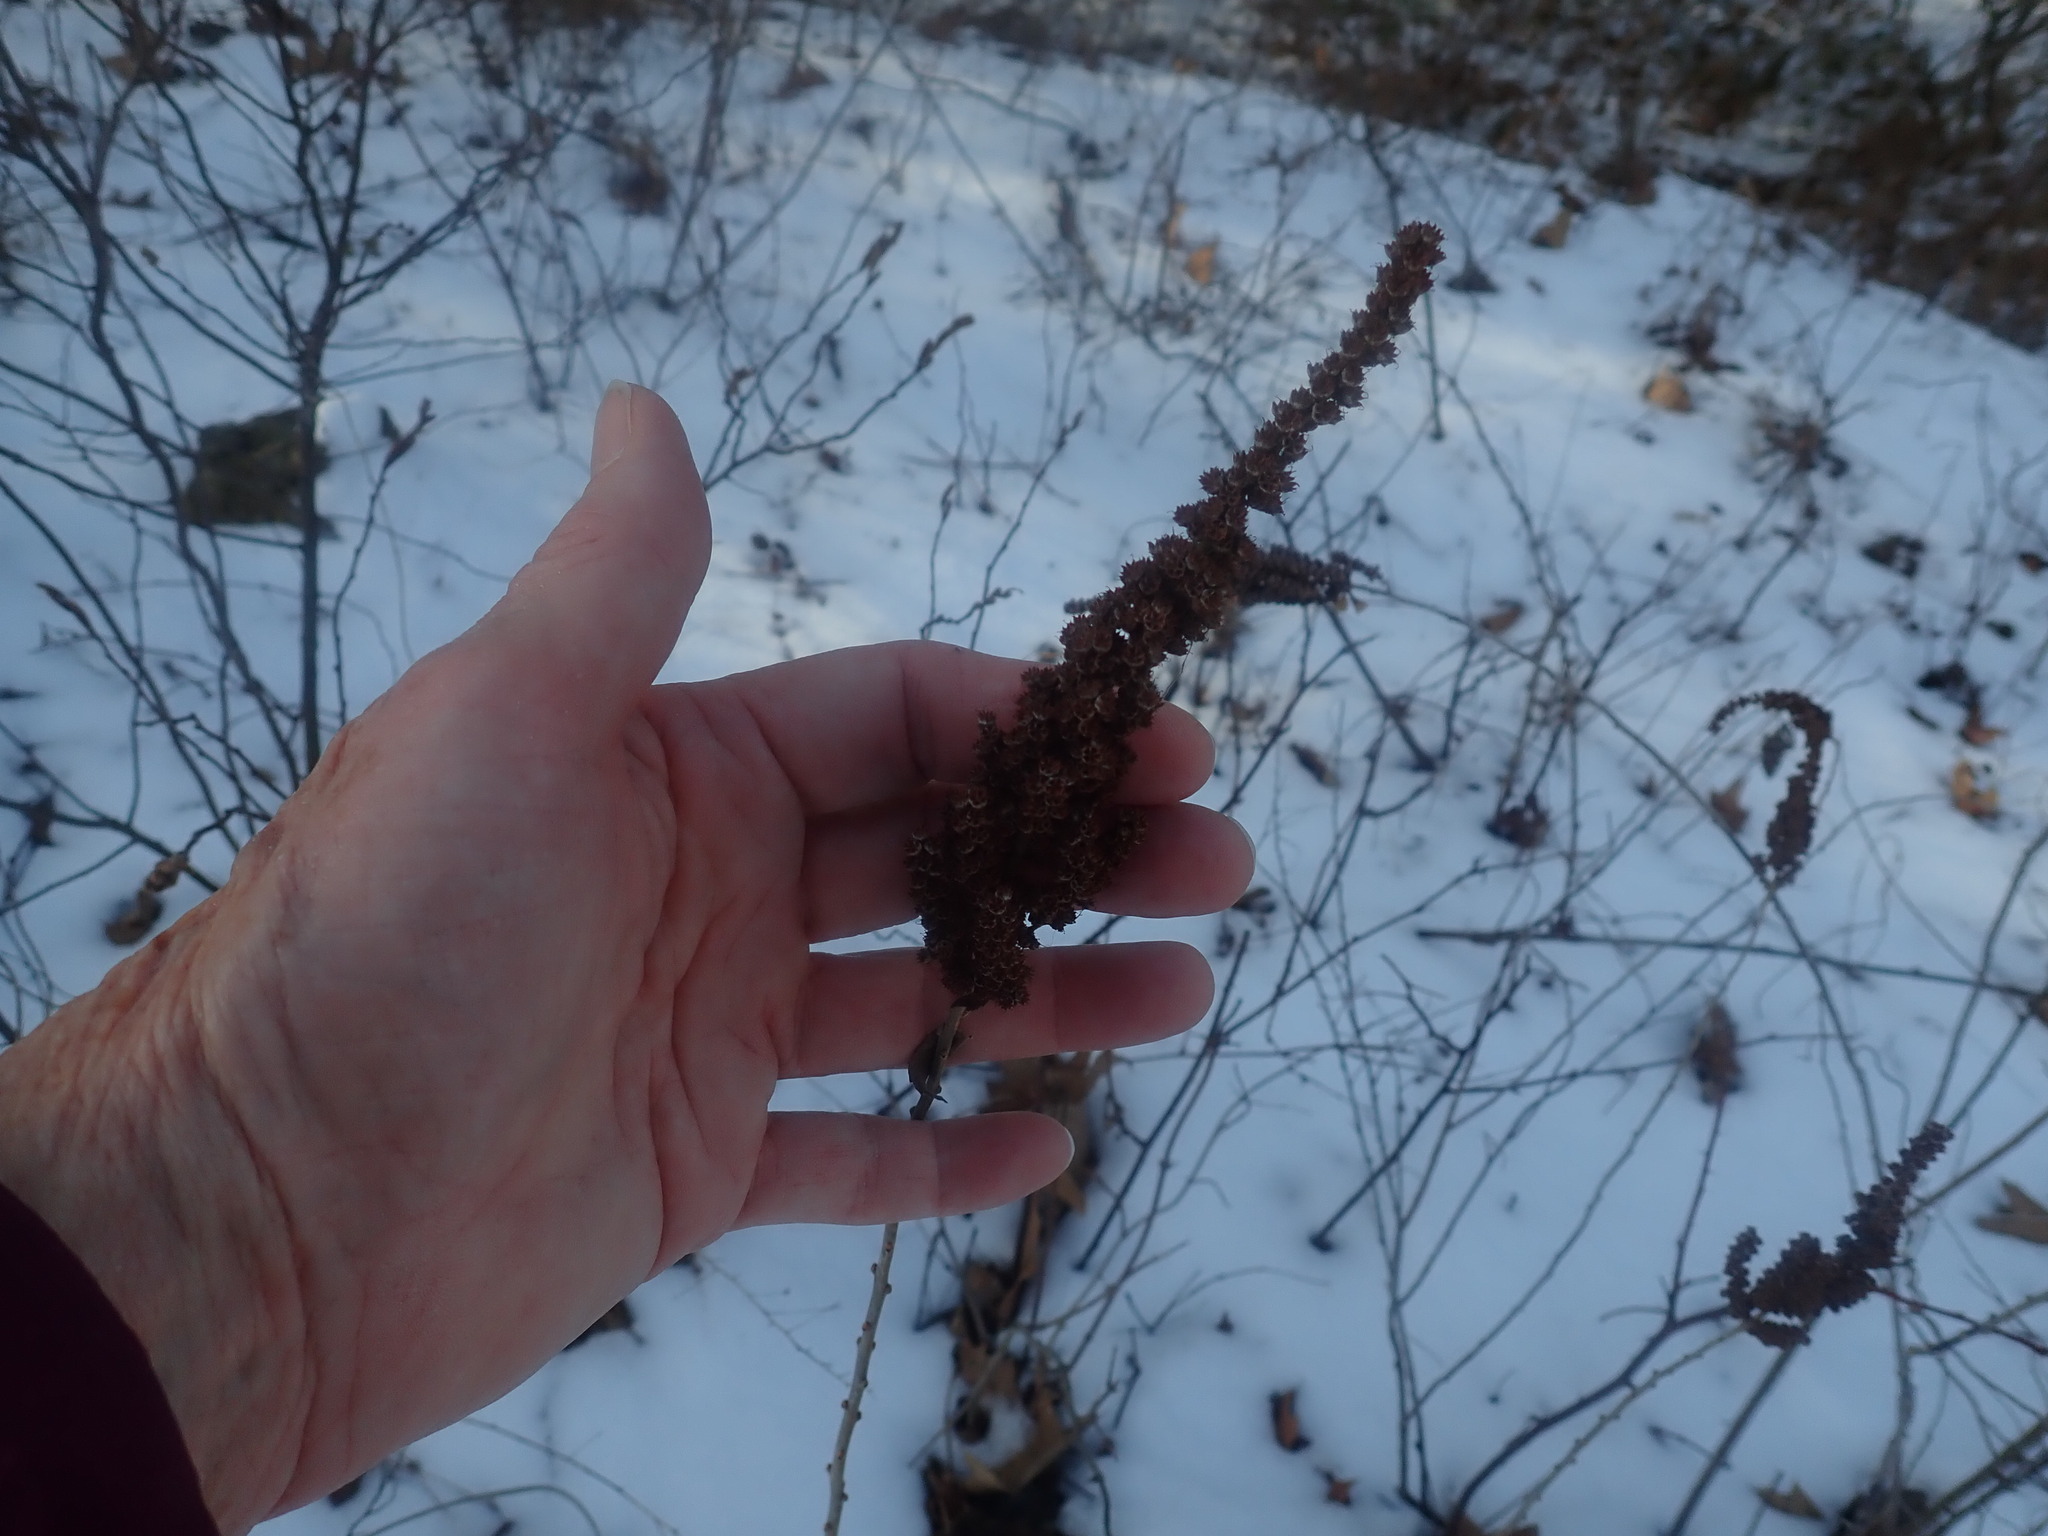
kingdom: Plantae
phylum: Tracheophyta
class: Magnoliopsida
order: Rosales
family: Rosaceae
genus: Spiraea
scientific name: Spiraea tomentosa
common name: Hardhack
